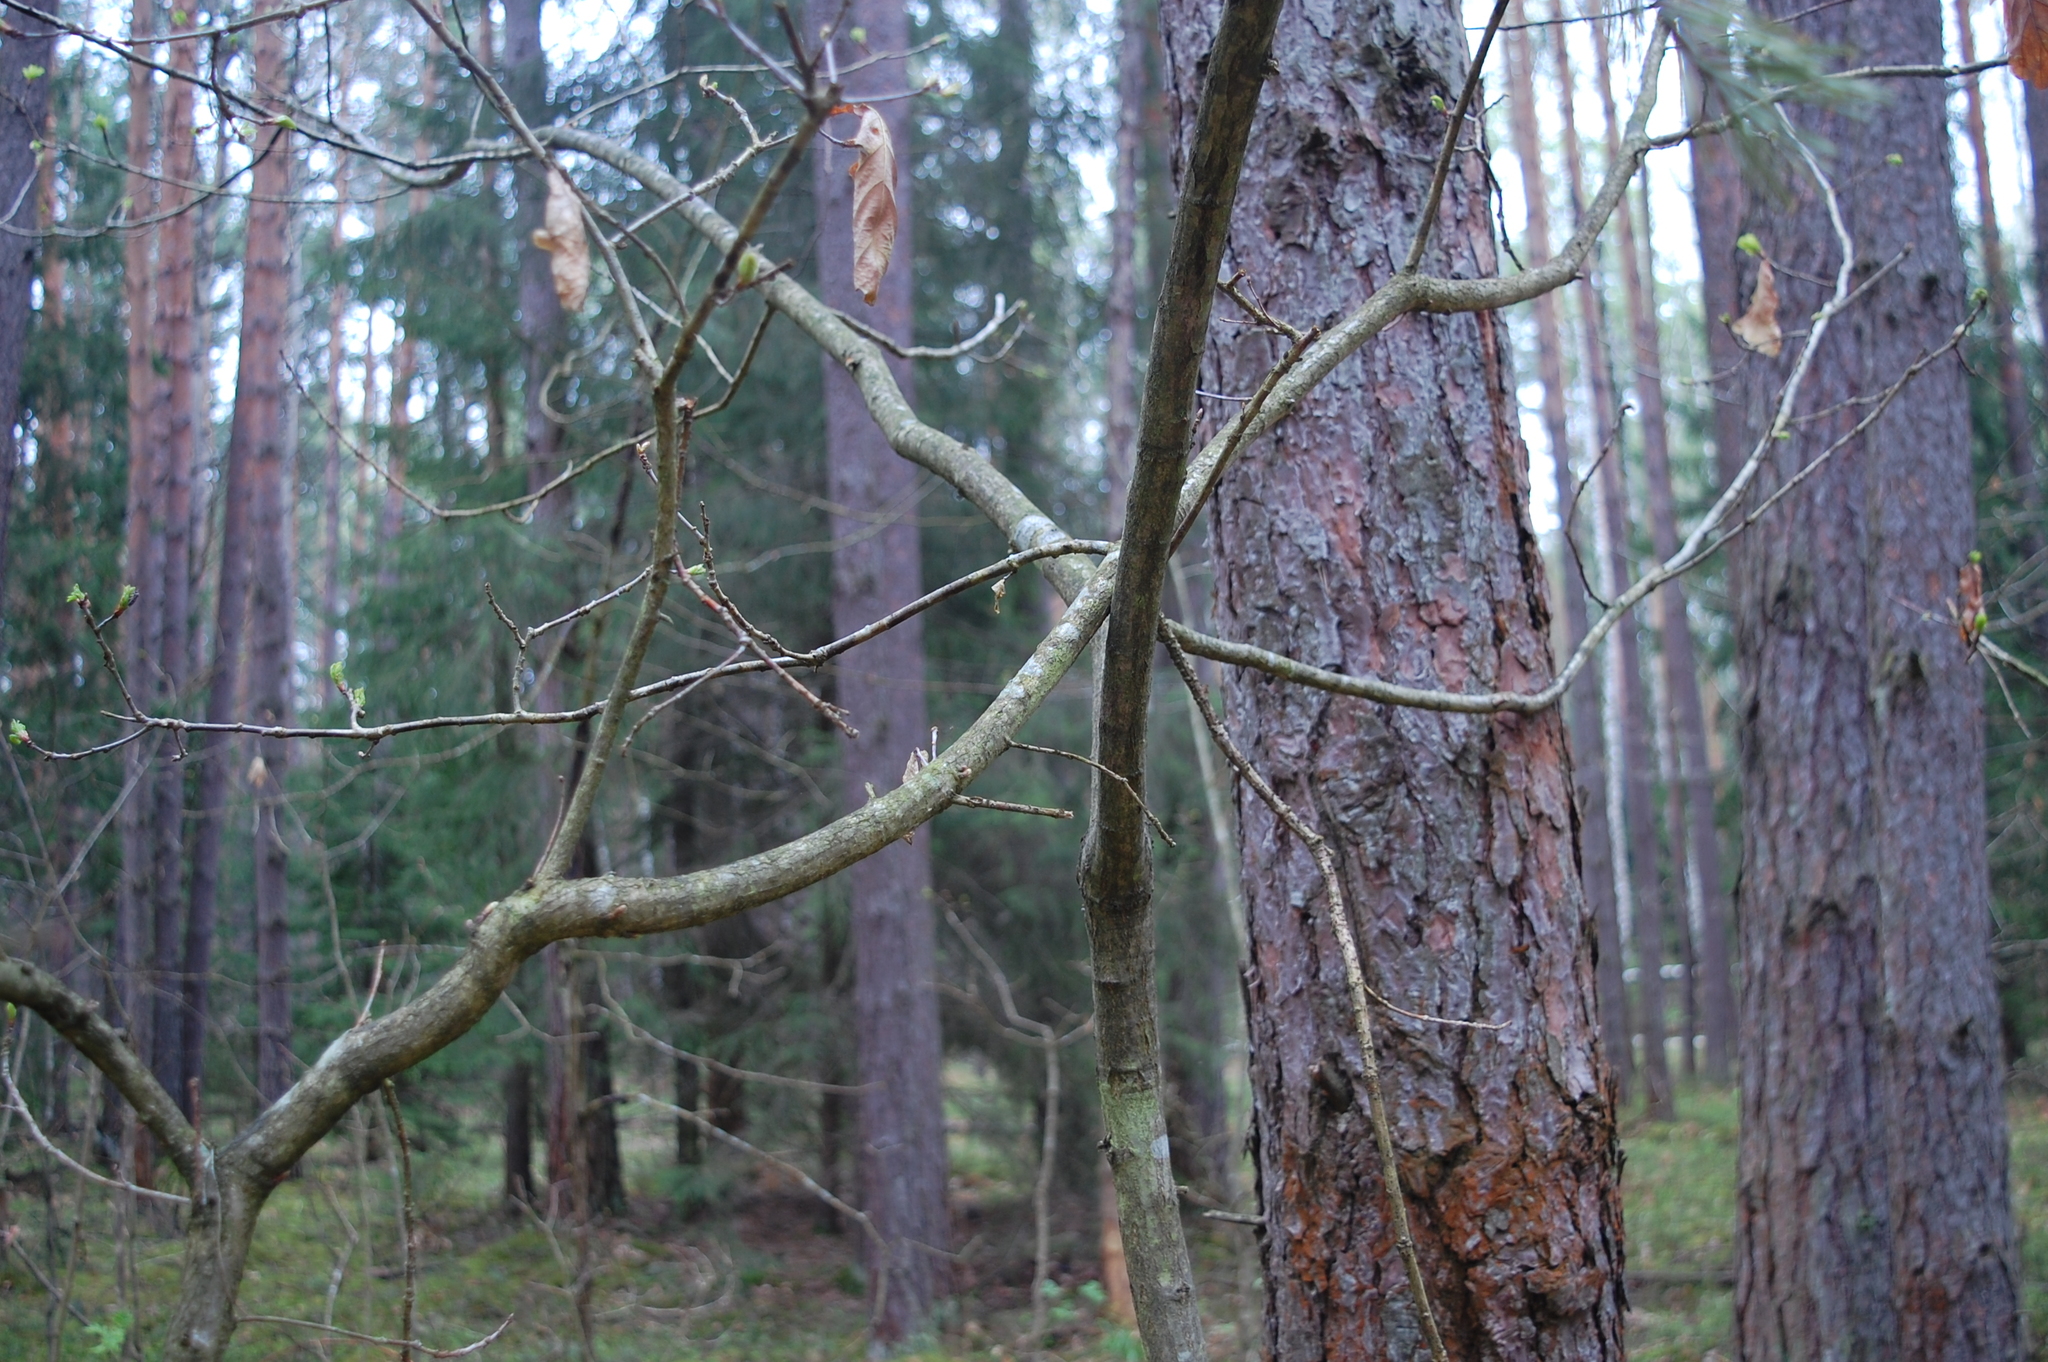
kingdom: Plantae
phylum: Tracheophyta
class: Magnoliopsida
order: Fagales
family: Fagaceae
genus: Quercus
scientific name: Quercus robur
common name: Pedunculate oak
